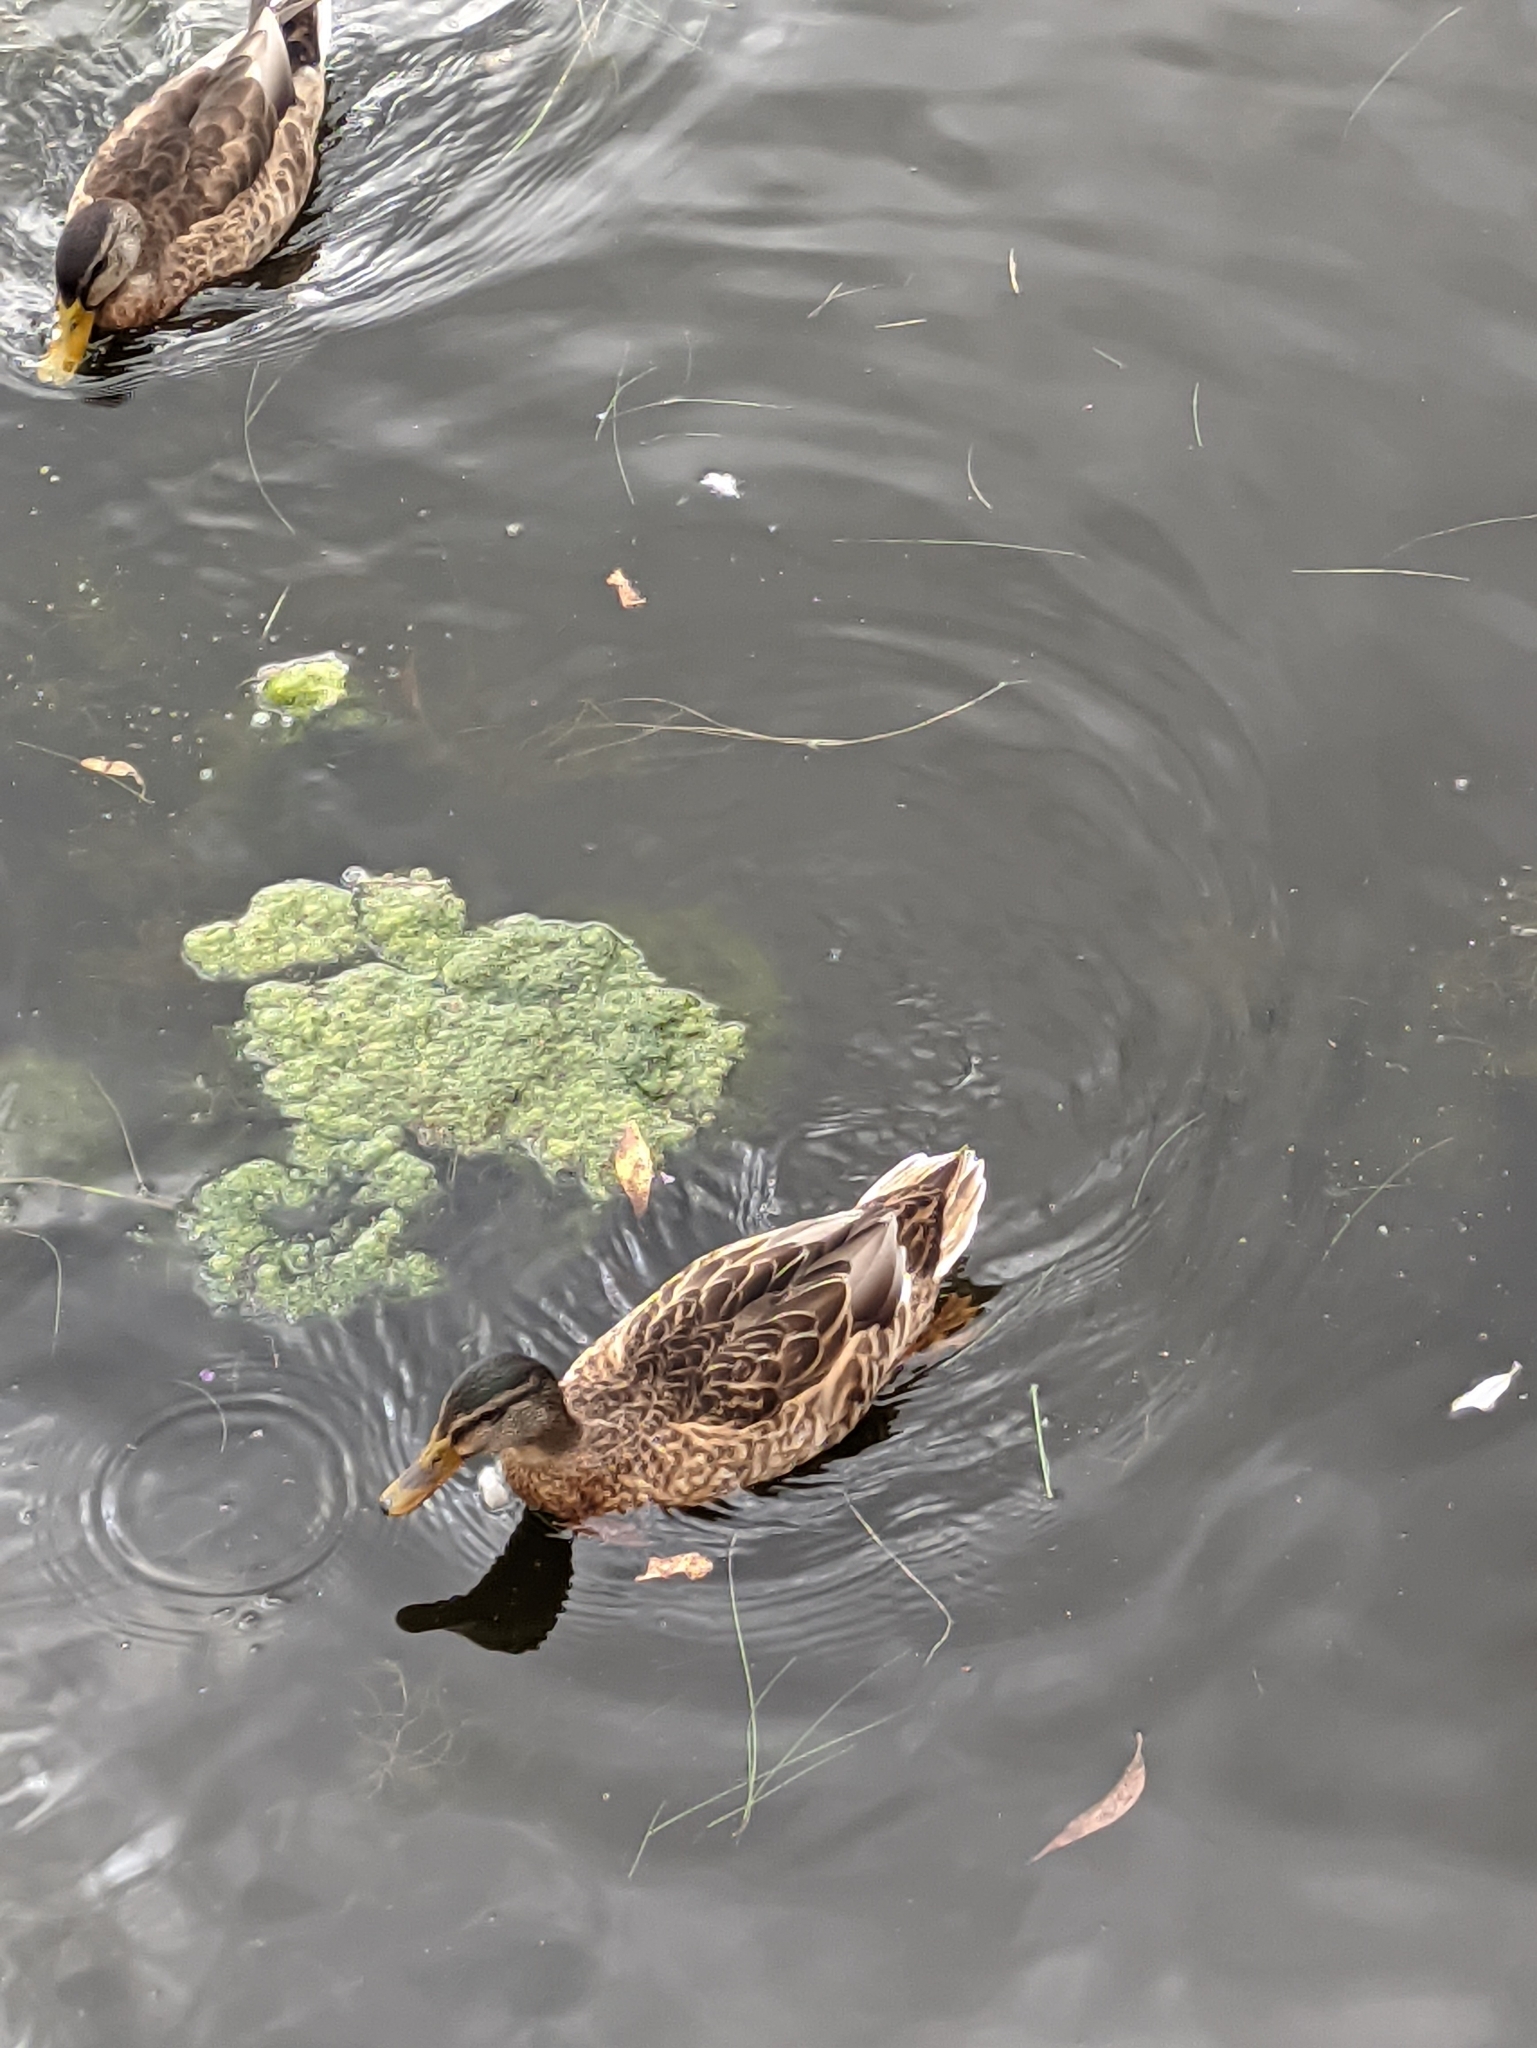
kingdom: Animalia
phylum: Chordata
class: Aves
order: Anseriformes
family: Anatidae
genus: Anas
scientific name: Anas platyrhynchos
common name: Mallard
